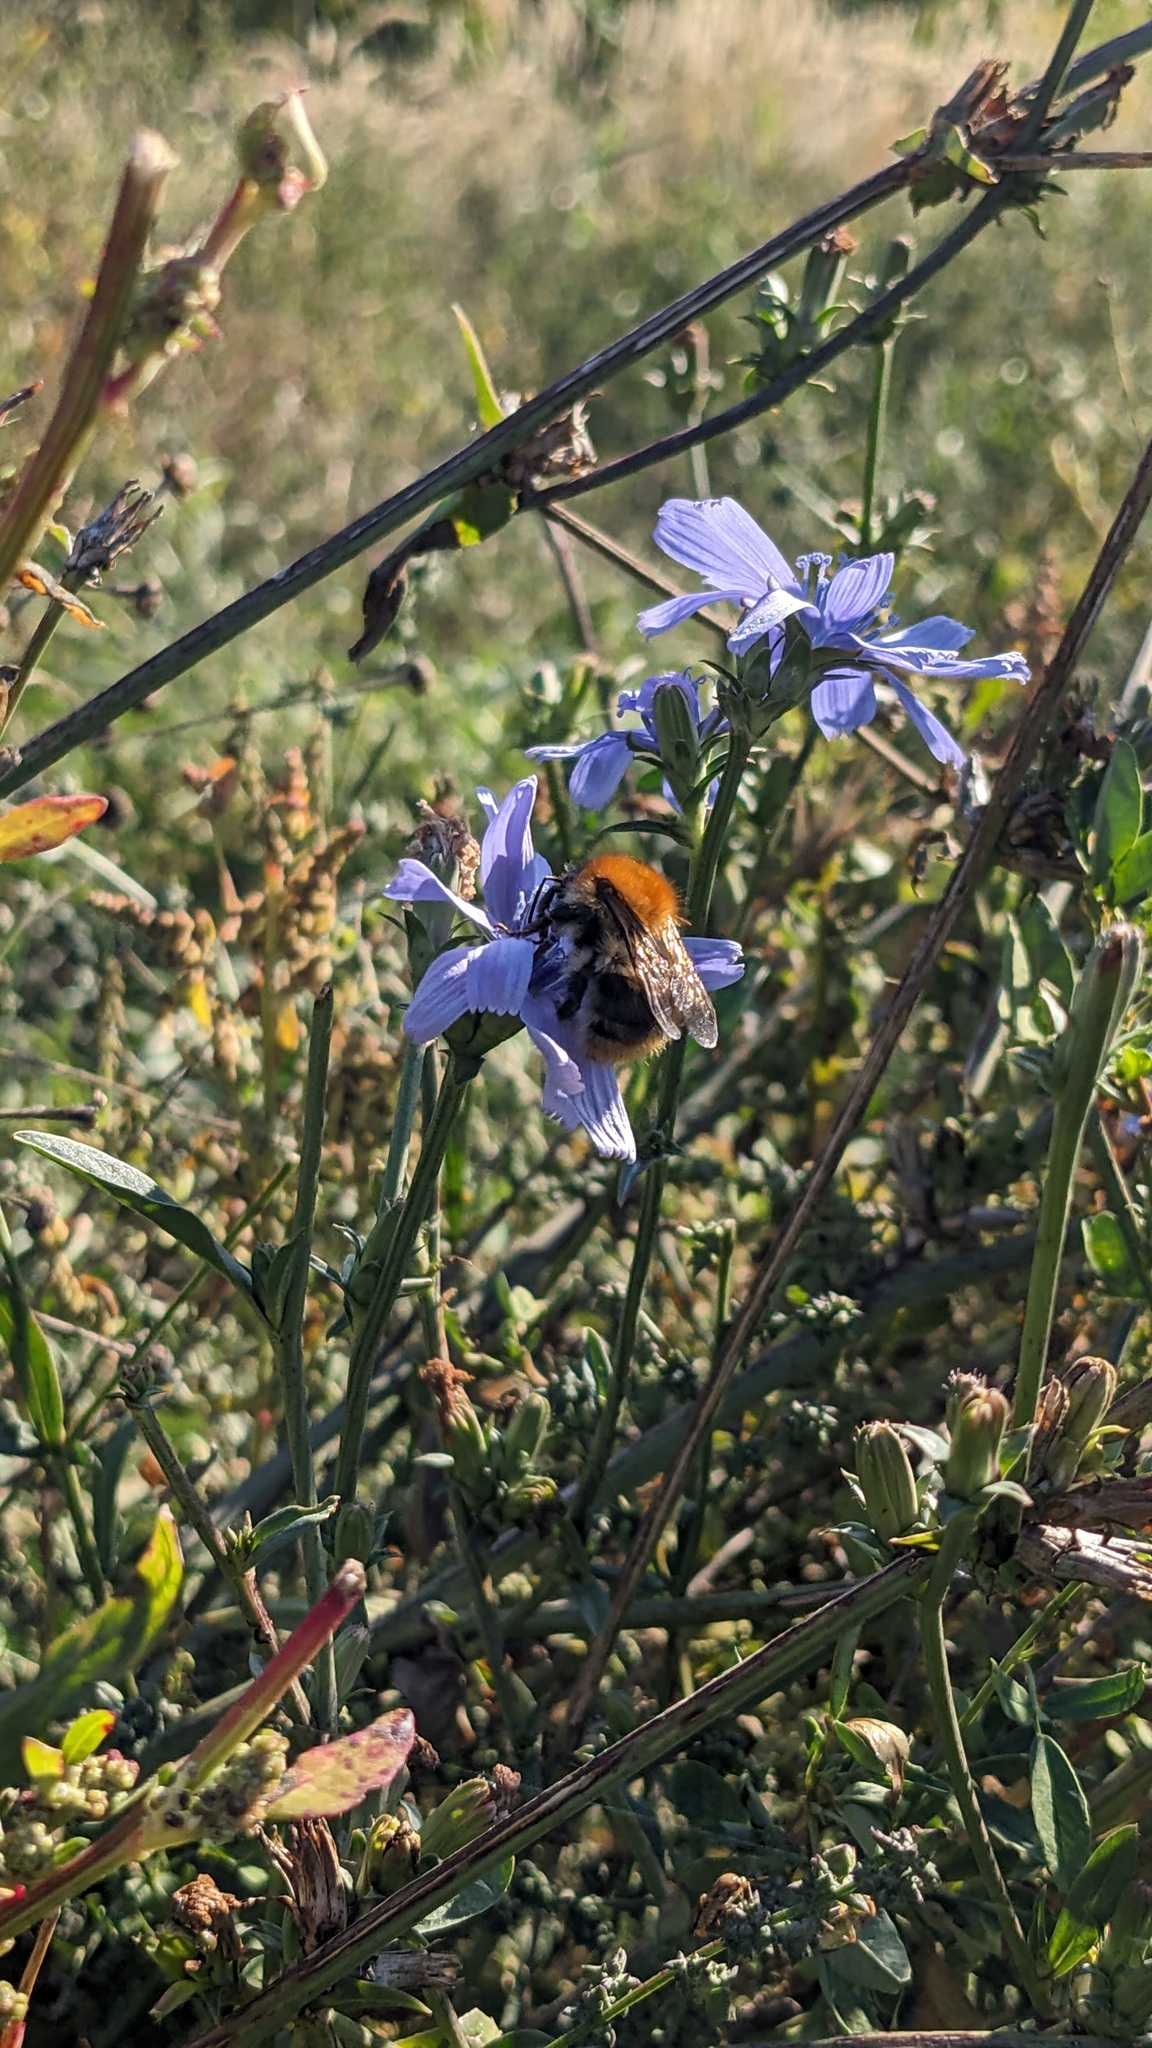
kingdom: Animalia
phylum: Arthropoda
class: Insecta
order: Hymenoptera
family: Apidae
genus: Bombus
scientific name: Bombus pascuorum
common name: Common carder bee
